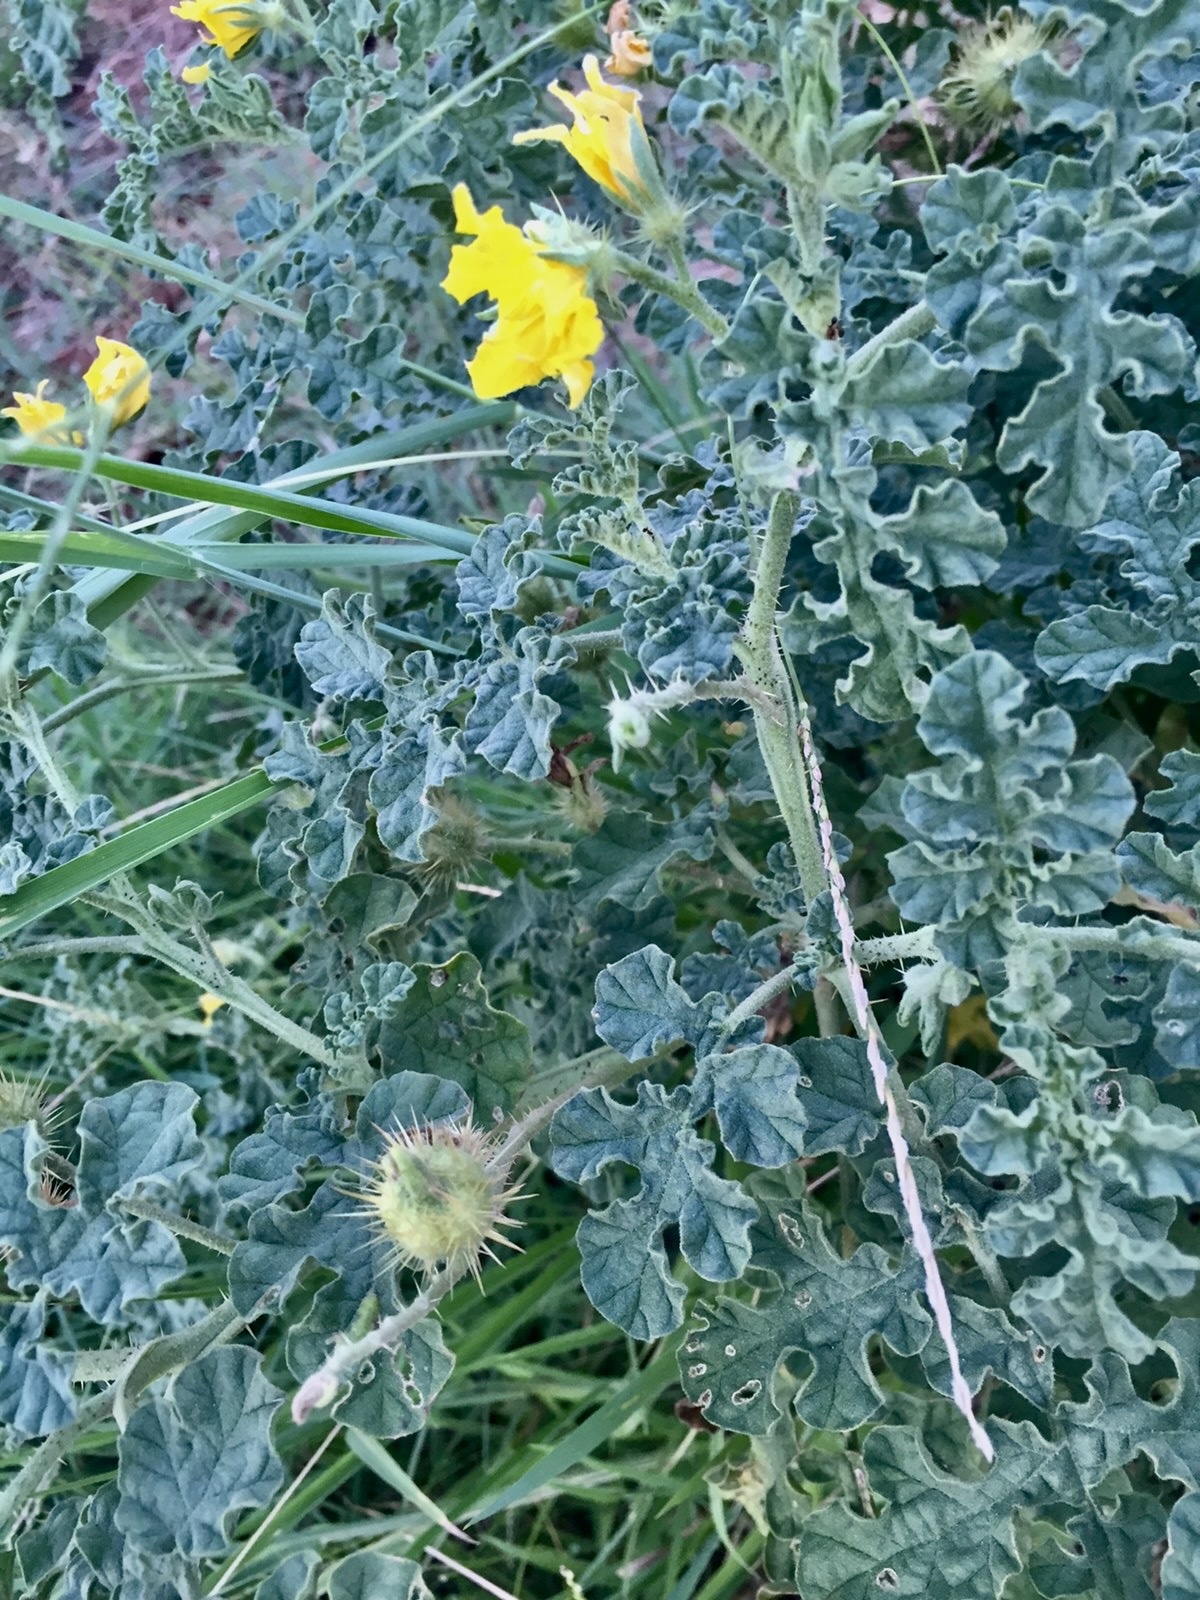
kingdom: Plantae
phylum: Tracheophyta
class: Magnoliopsida
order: Solanales
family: Solanaceae
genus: Solanum
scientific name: Solanum angustifolium
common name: Buffalobur nightshade
